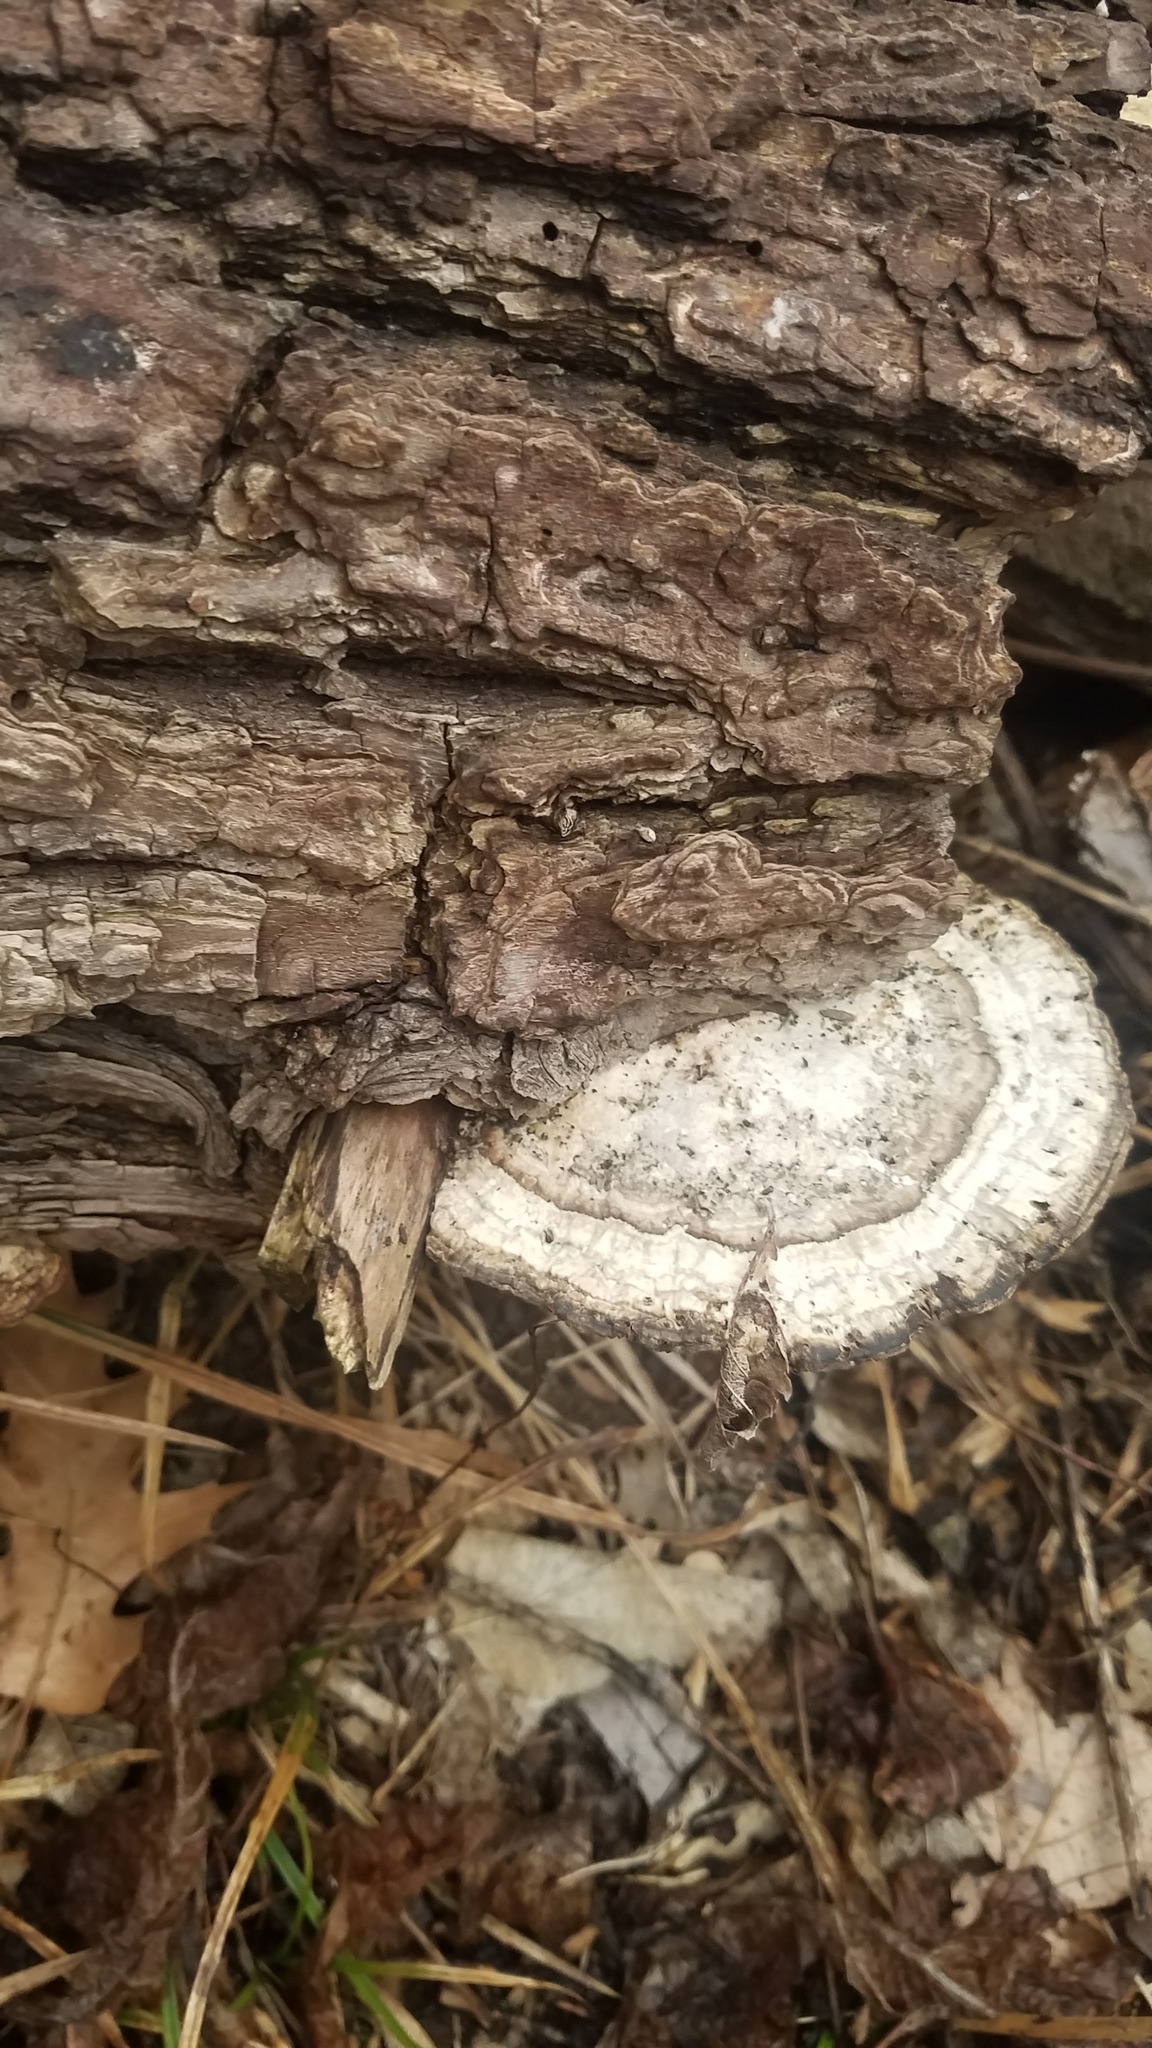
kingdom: Fungi
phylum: Basidiomycota
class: Agaricomycetes
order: Polyporales
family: Polyporaceae
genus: Daedaleopsis
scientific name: Daedaleopsis confragosa
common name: Blushing bracket
